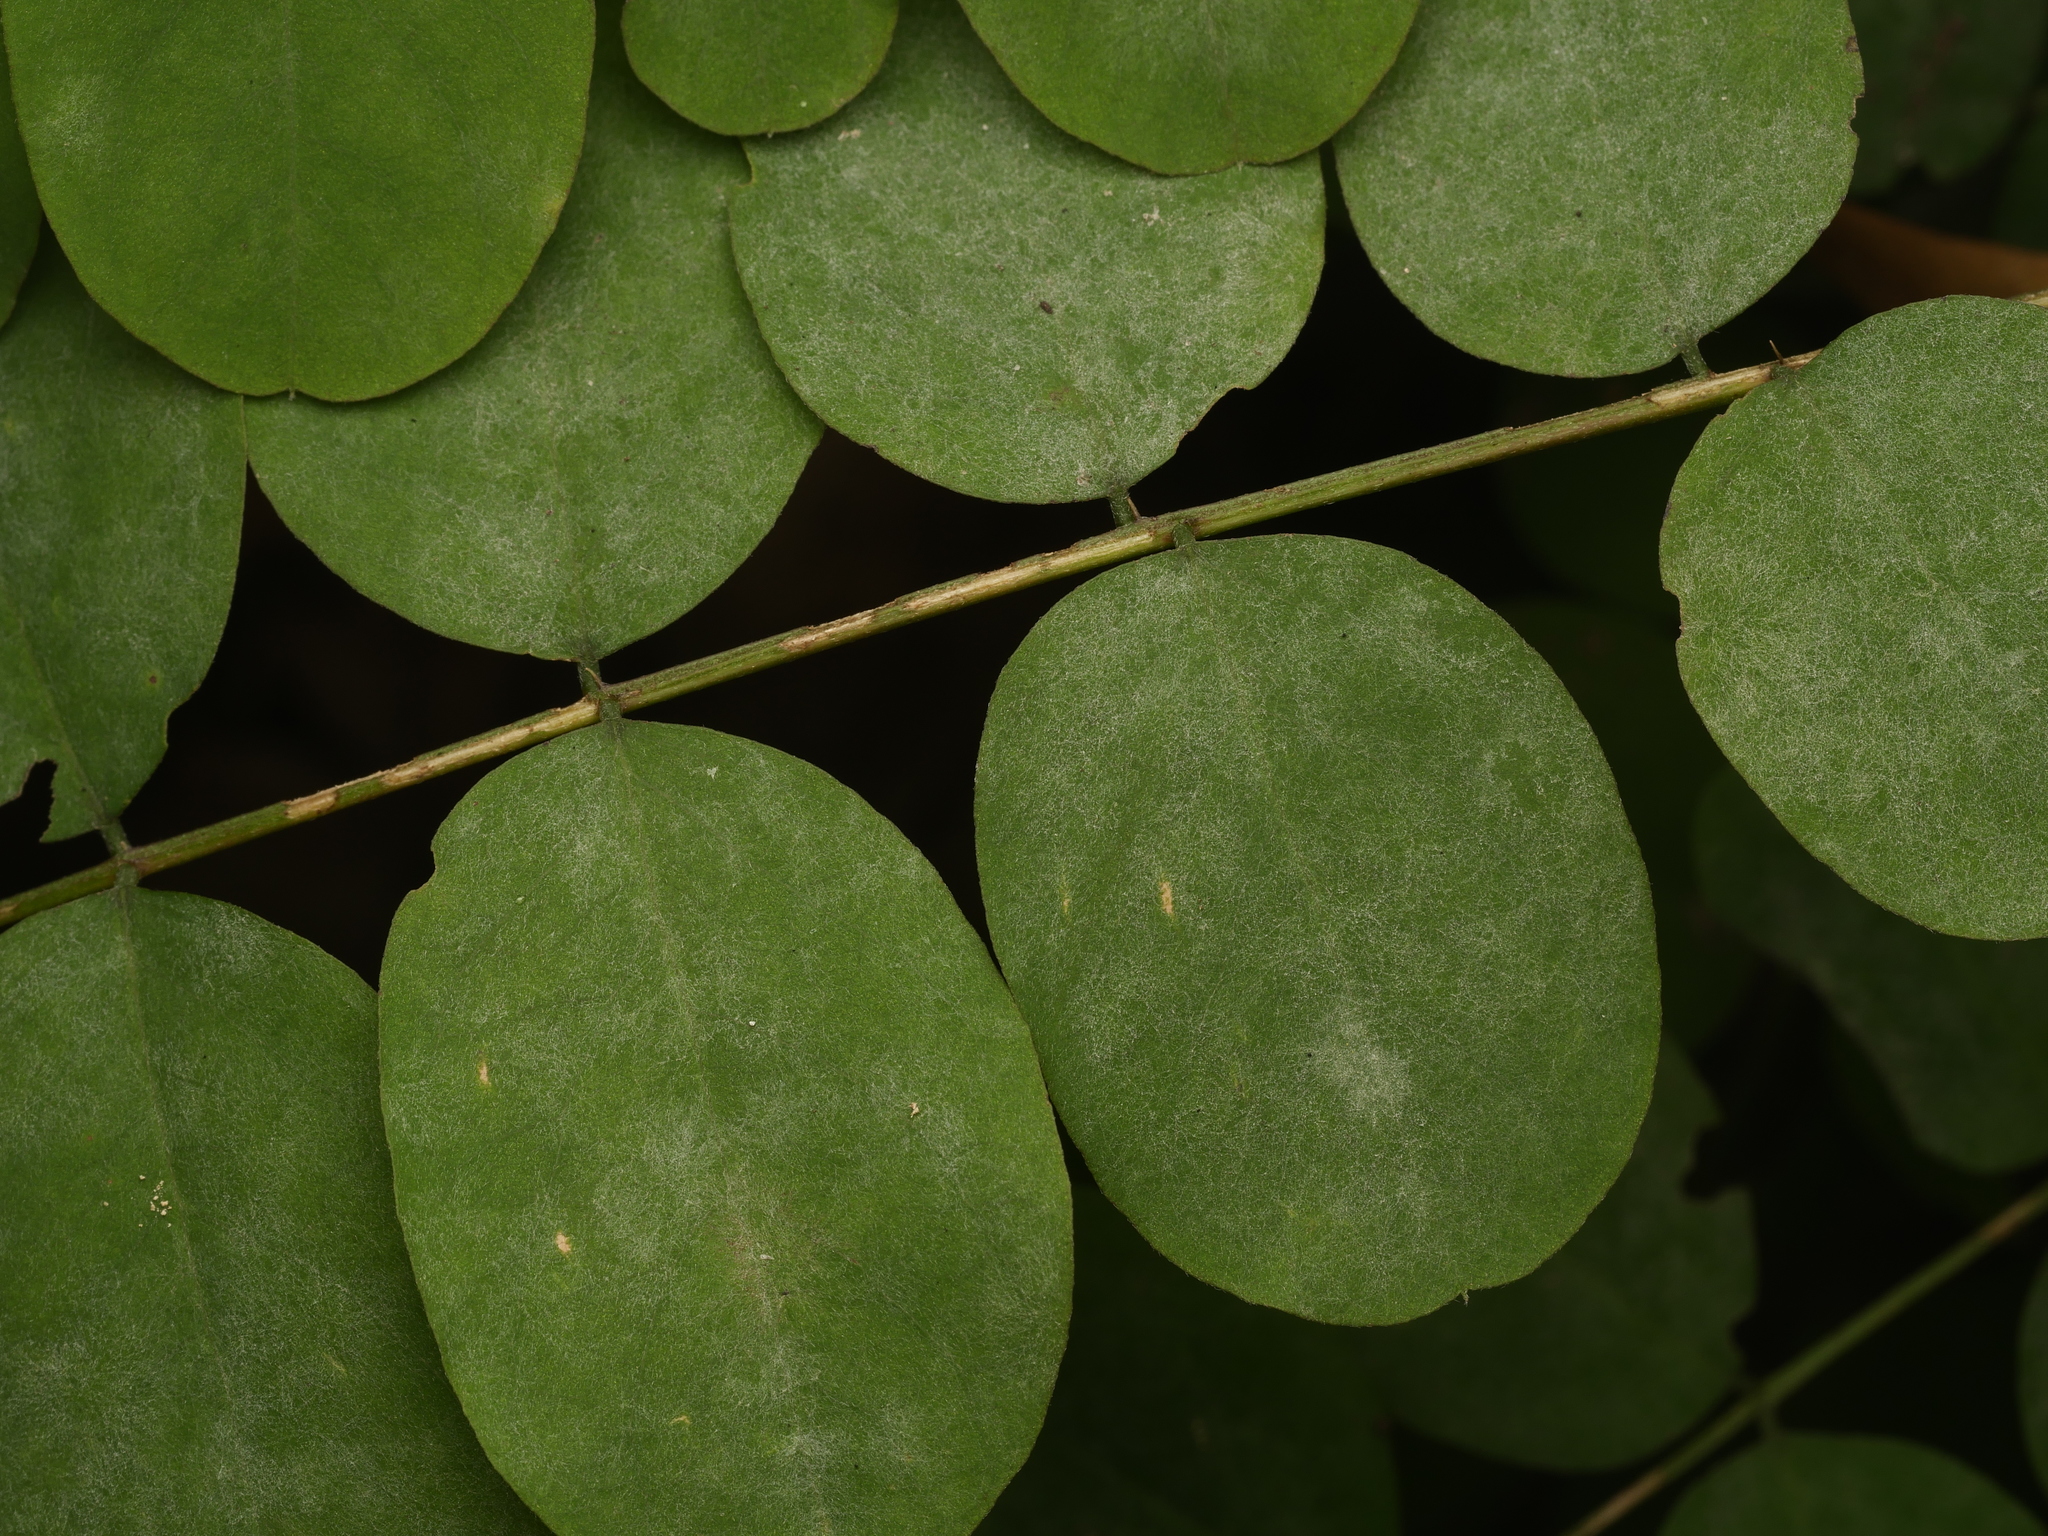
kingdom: Plantae
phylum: Tracheophyta
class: Magnoliopsida
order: Fabales
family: Fabaceae
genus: Robinia
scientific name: Robinia pseudoacacia
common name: Black locust
